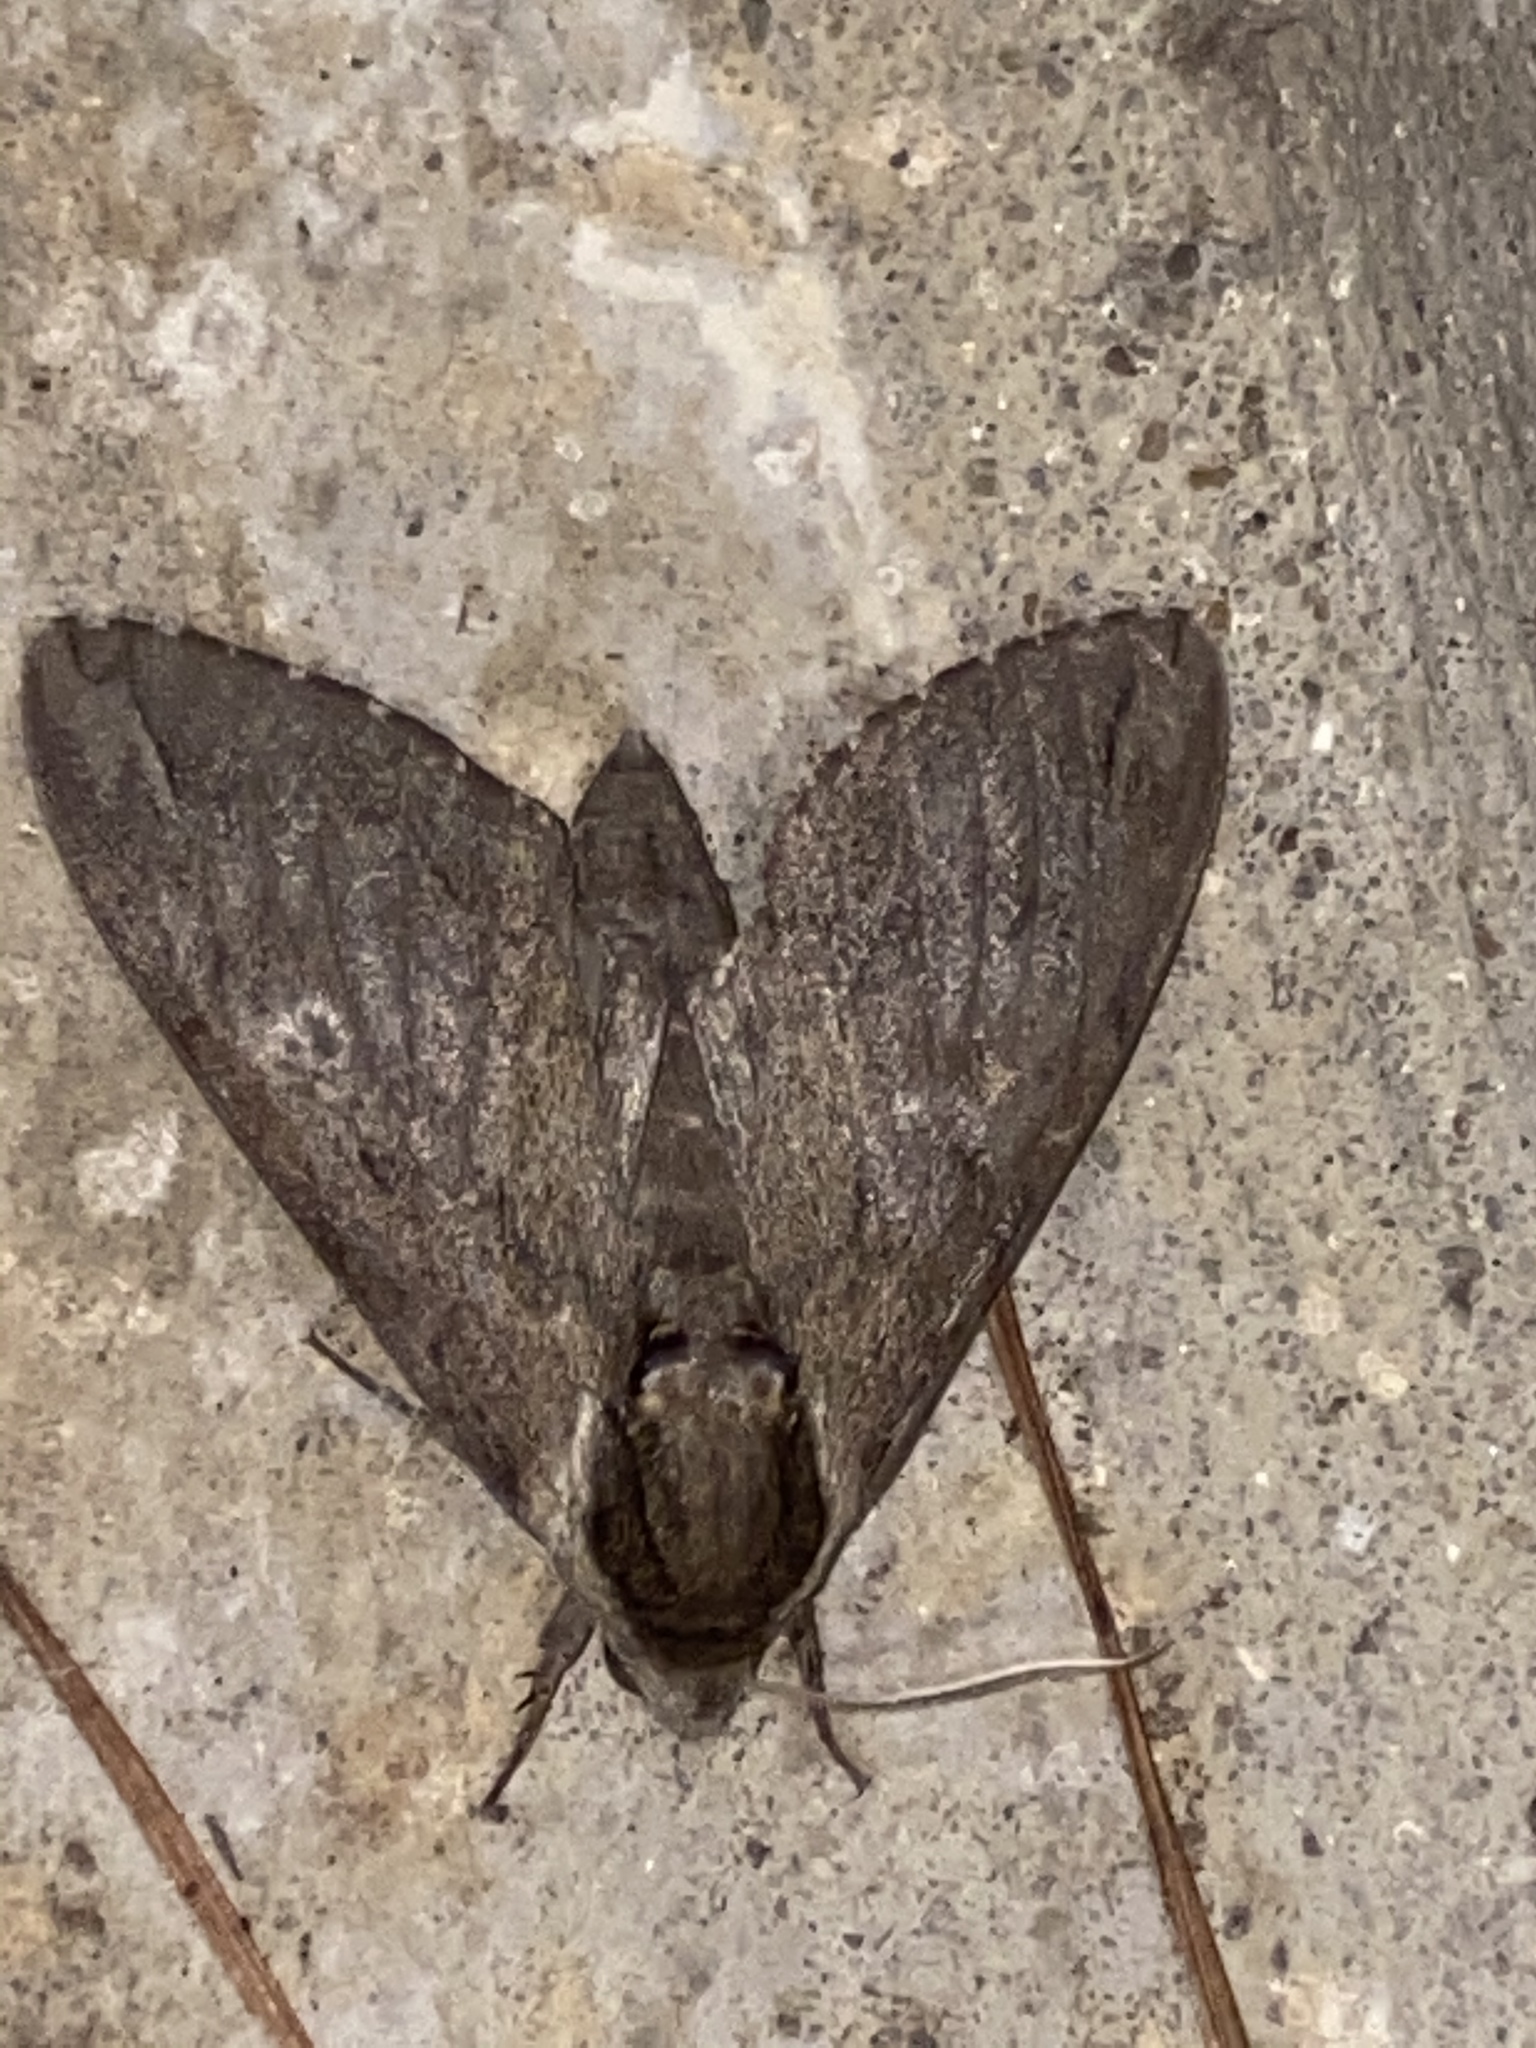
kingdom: Animalia
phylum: Arthropoda
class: Insecta
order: Lepidoptera
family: Sphingidae
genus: Ceratomia
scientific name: Ceratomia catalpae
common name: Catalpa hornworm
